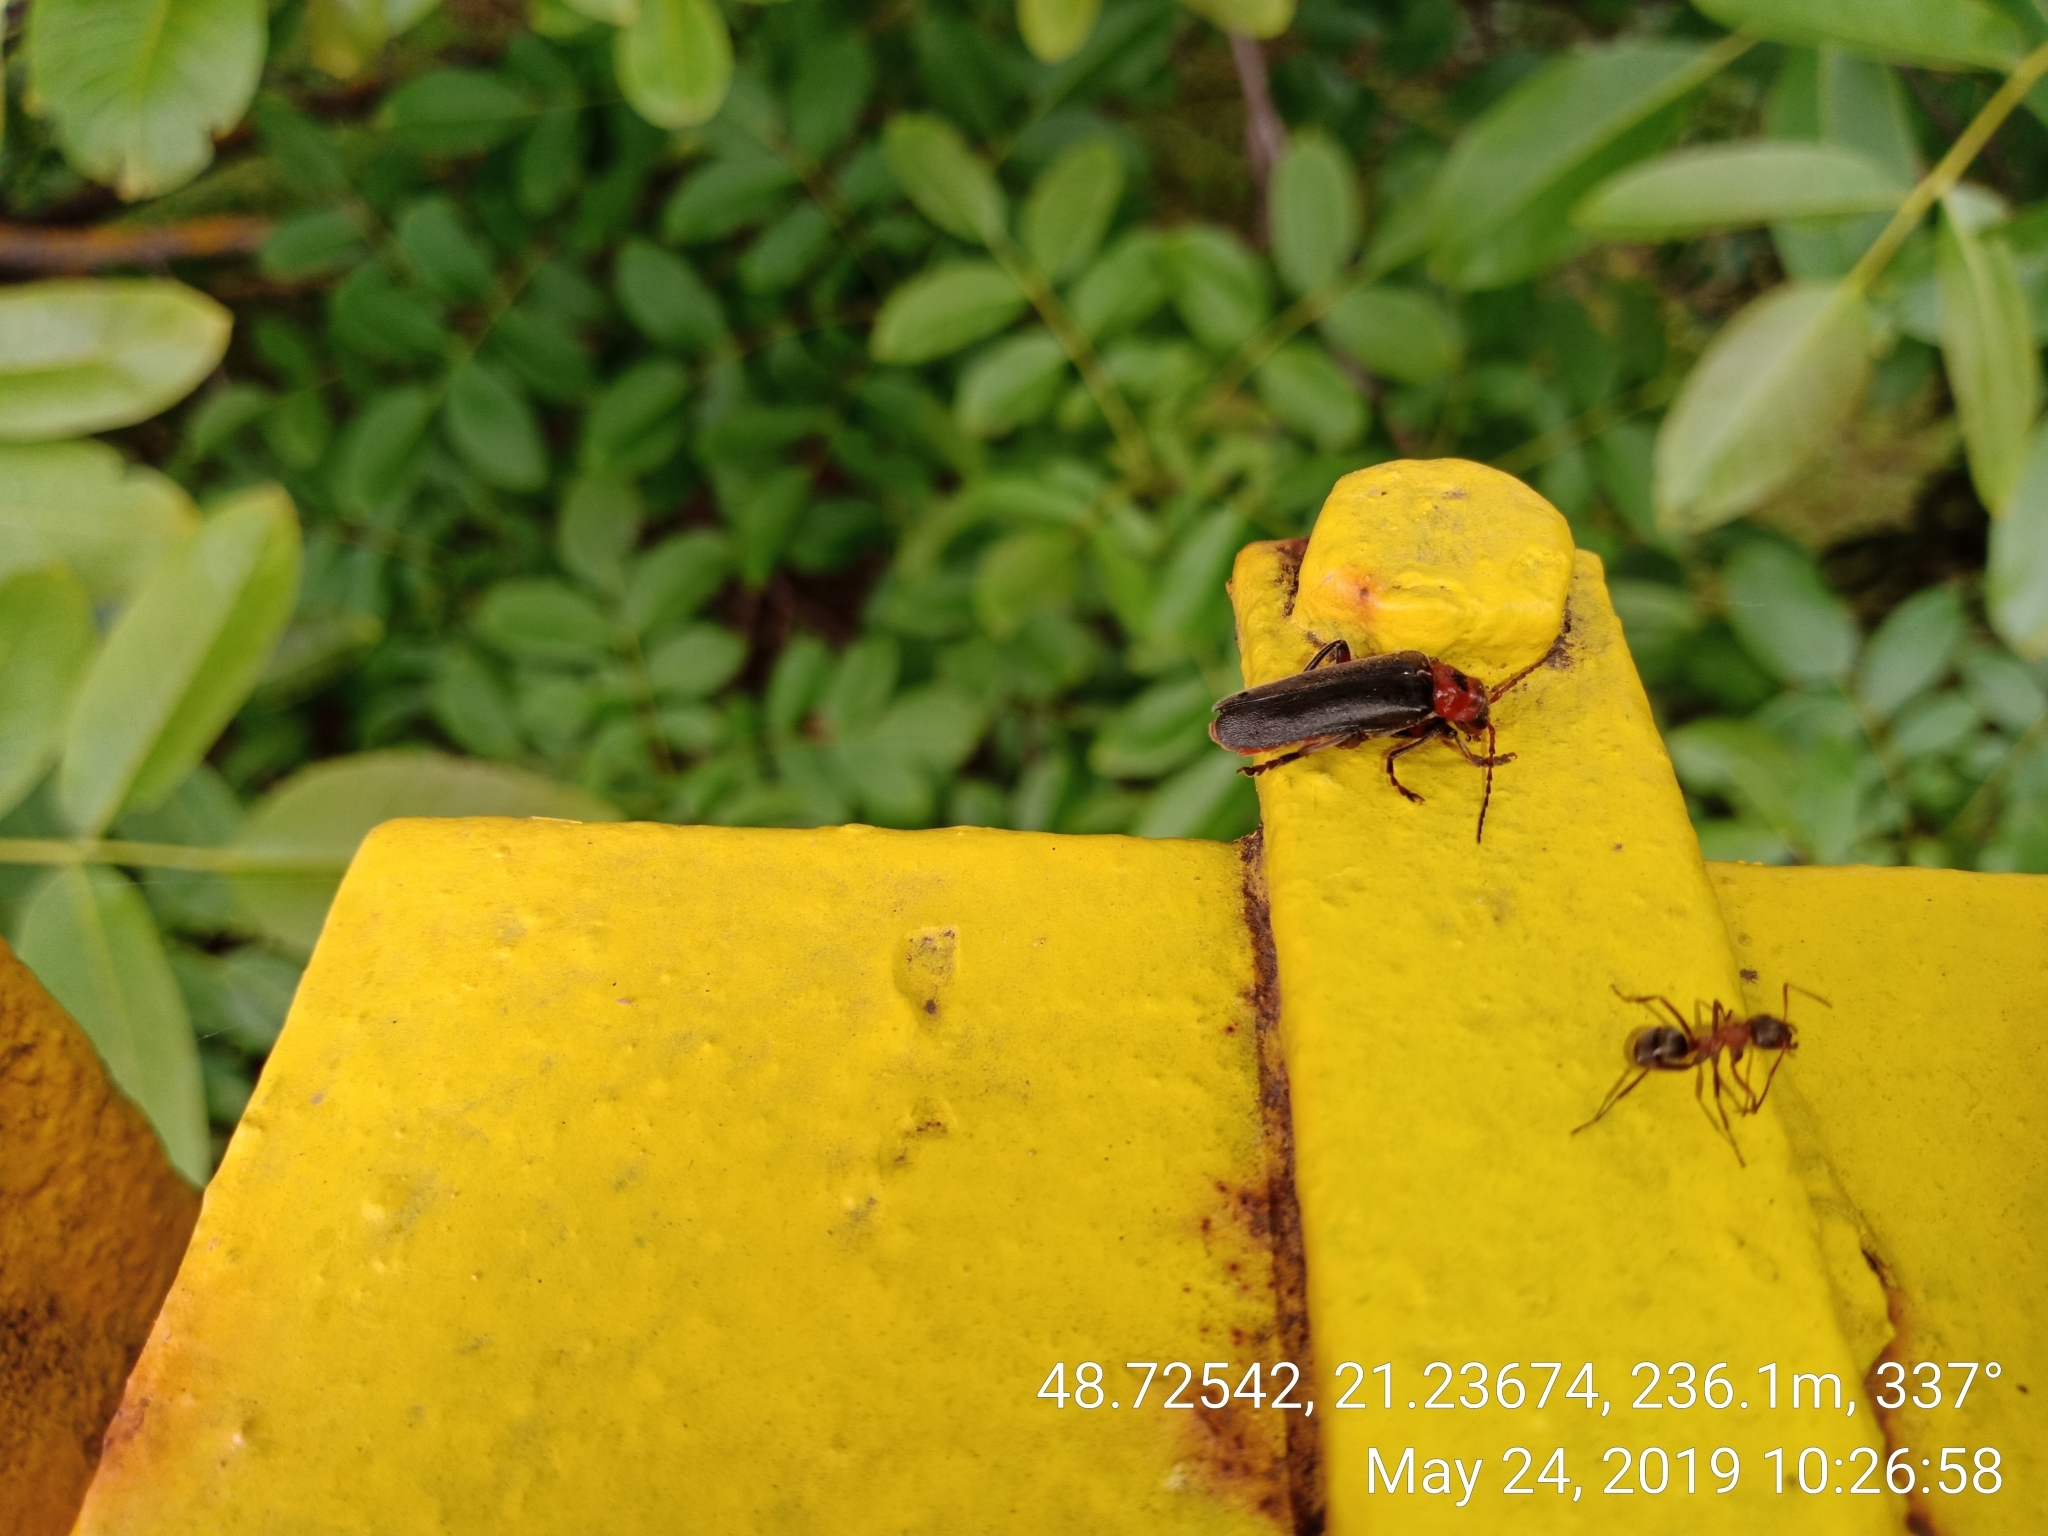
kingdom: Animalia
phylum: Arthropoda
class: Insecta
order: Coleoptera
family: Cantharidae
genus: Cantharis
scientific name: Cantharis rustica
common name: Soldier beetle
